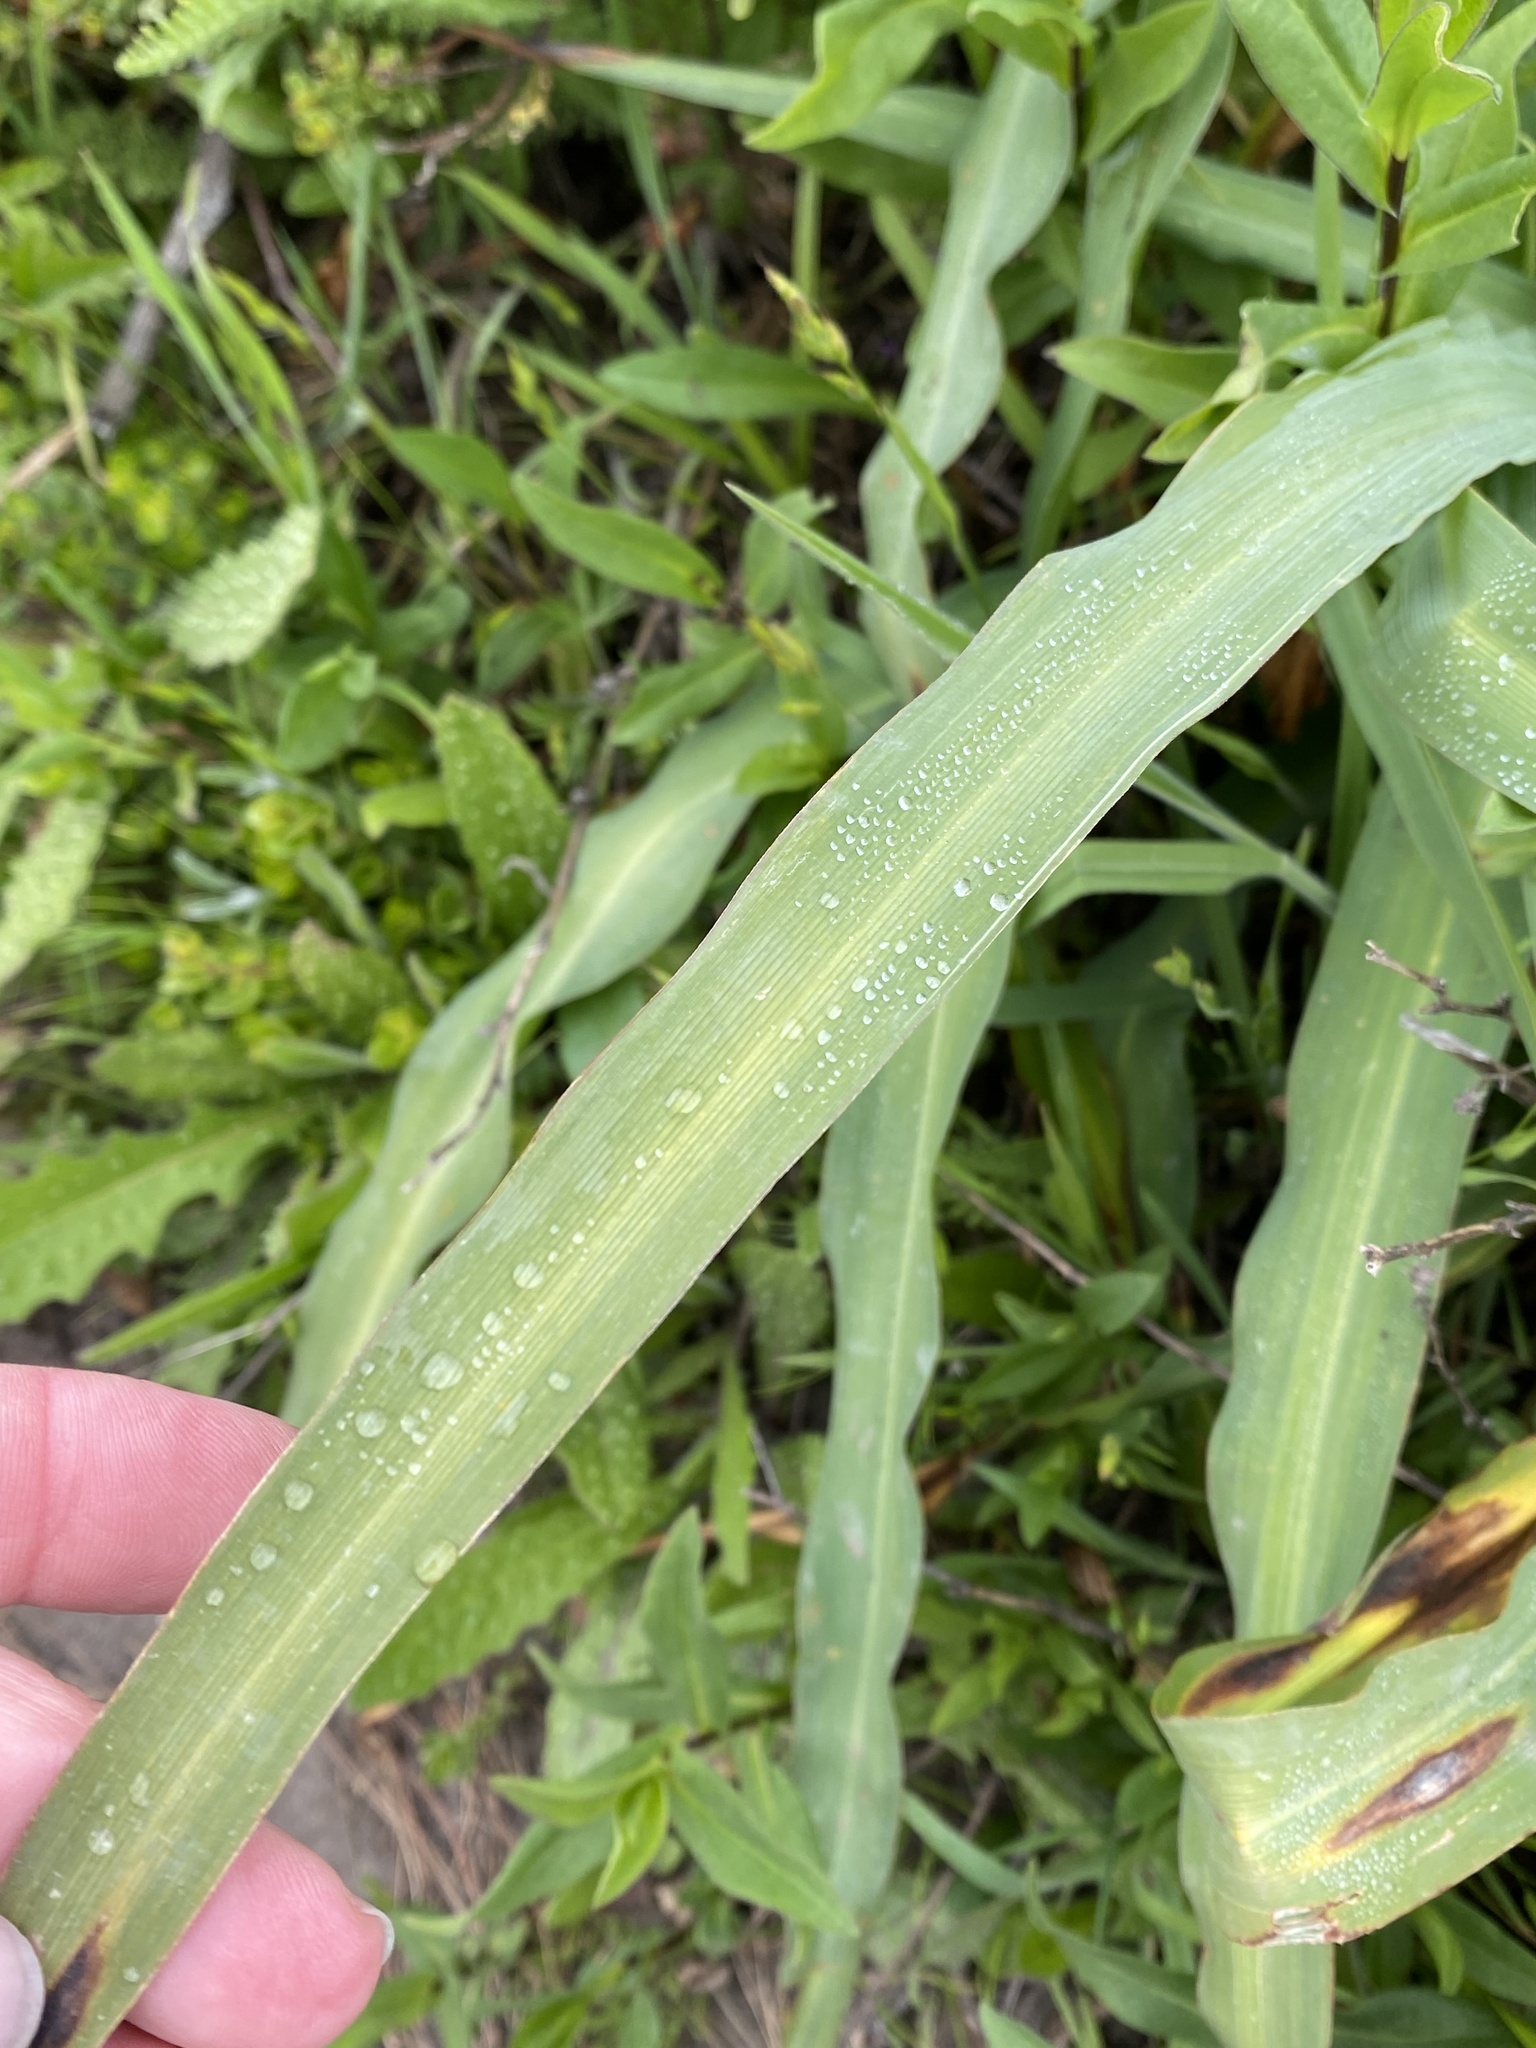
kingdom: Plantae
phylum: Tracheophyta
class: Liliopsida
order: Asparagales
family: Asparagaceae
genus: Chlorogalum
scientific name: Chlorogalum pomeridianum
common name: Amole
